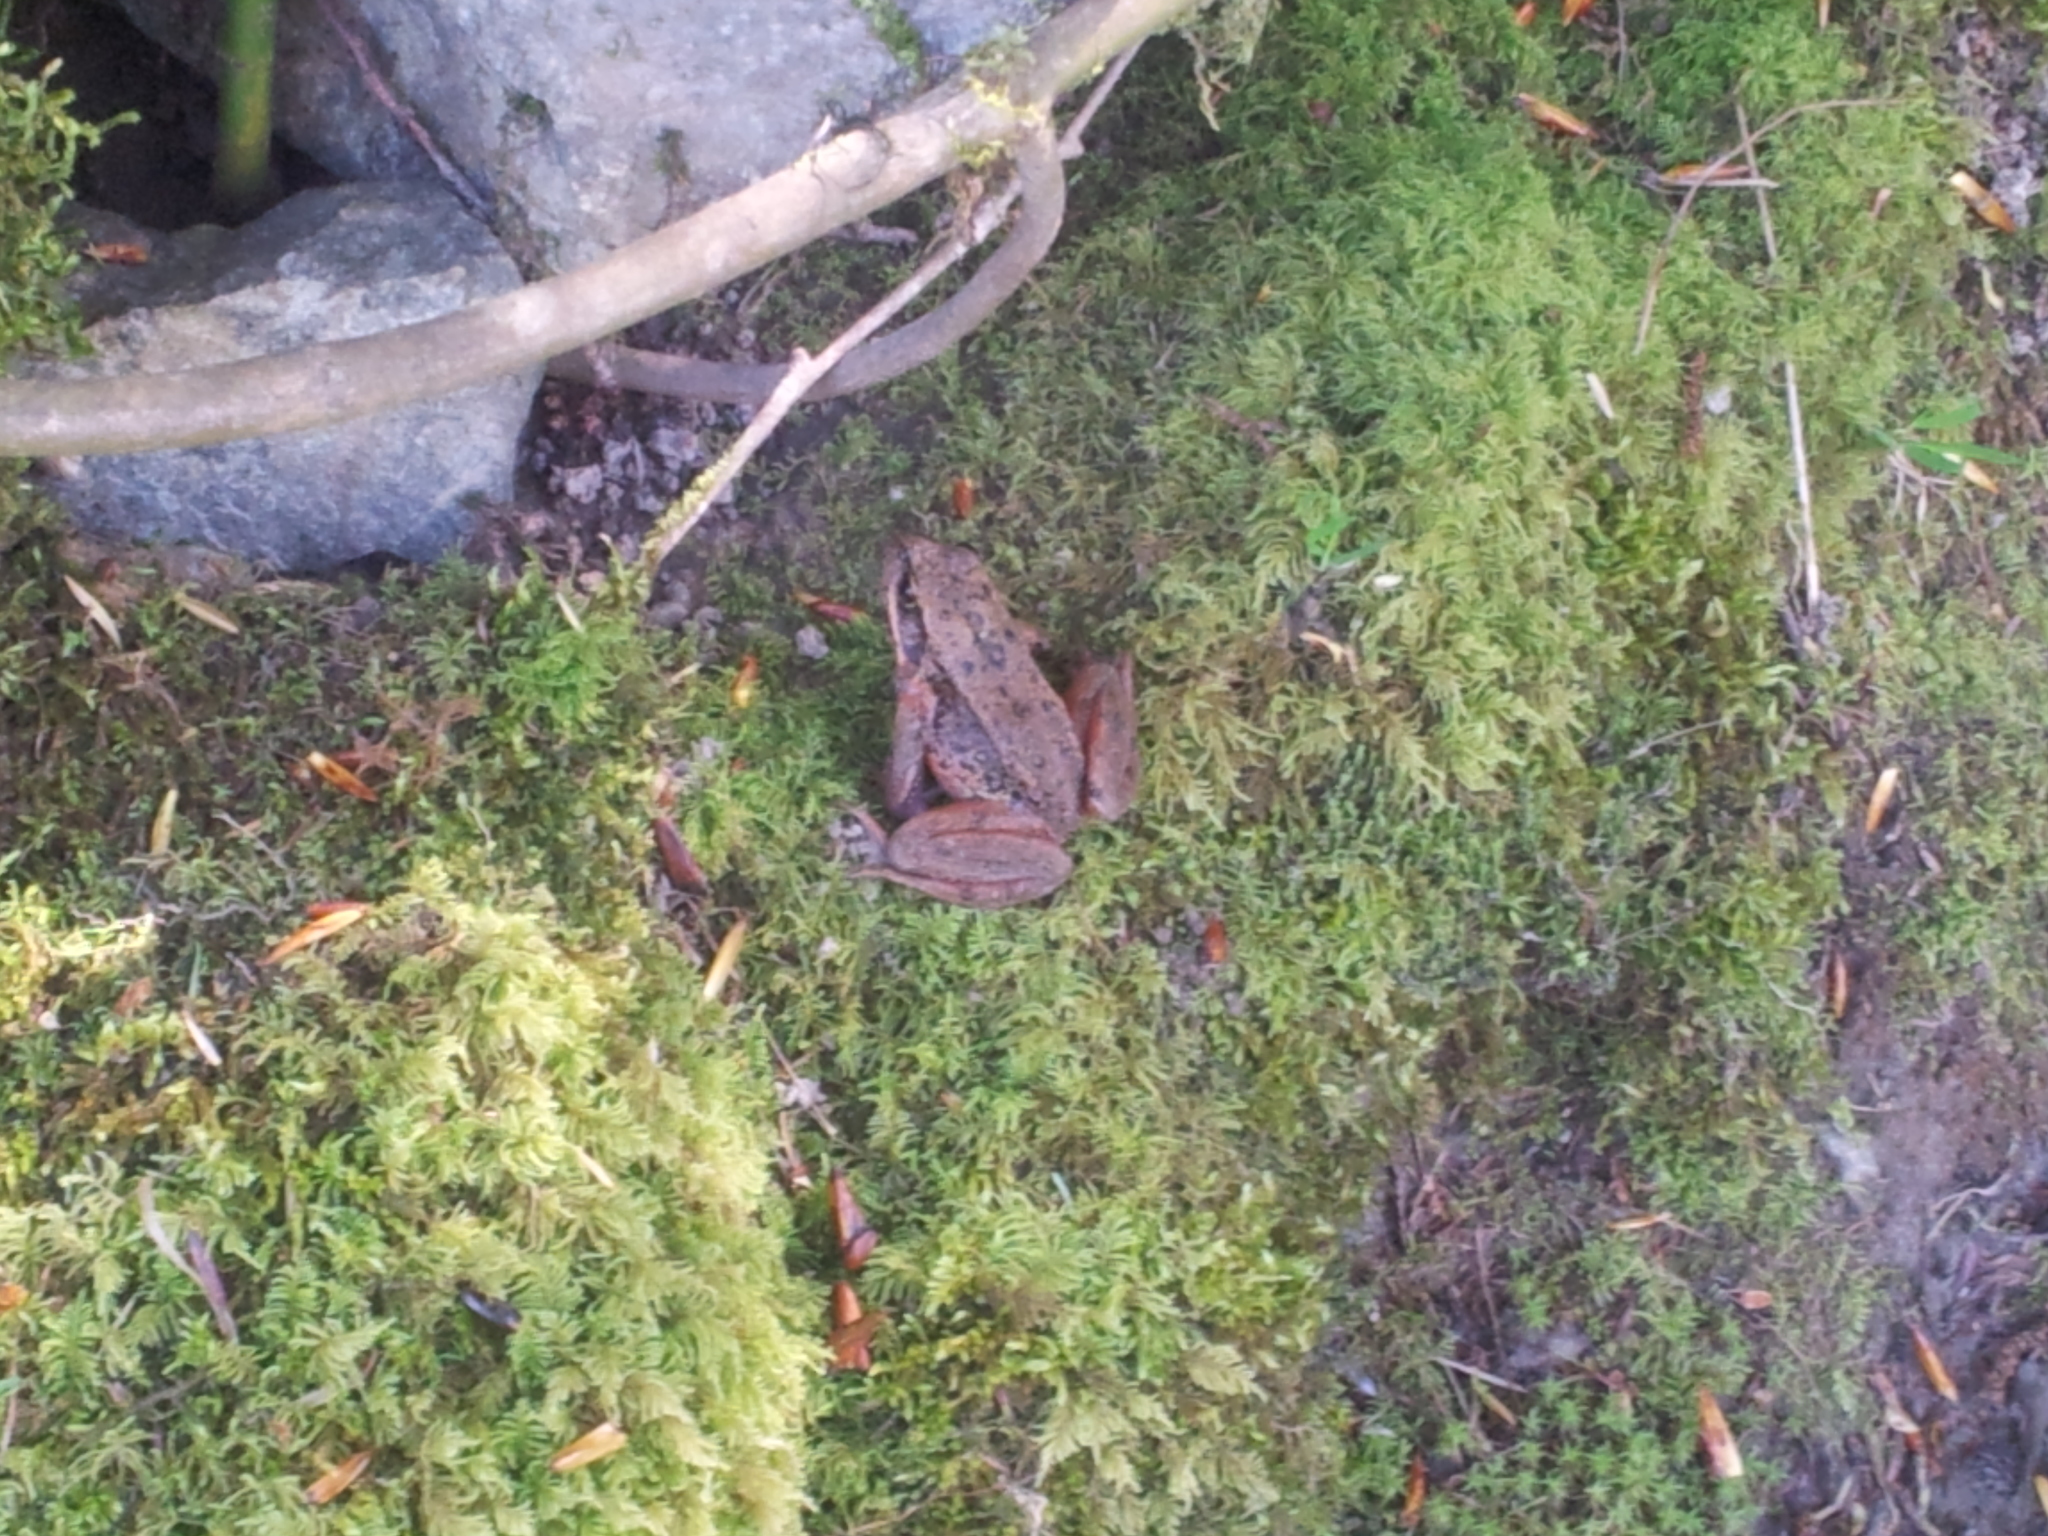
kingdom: Animalia
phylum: Chordata
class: Amphibia
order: Anura
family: Ranidae
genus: Rana
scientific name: Rana aurora
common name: Red-legged frog
